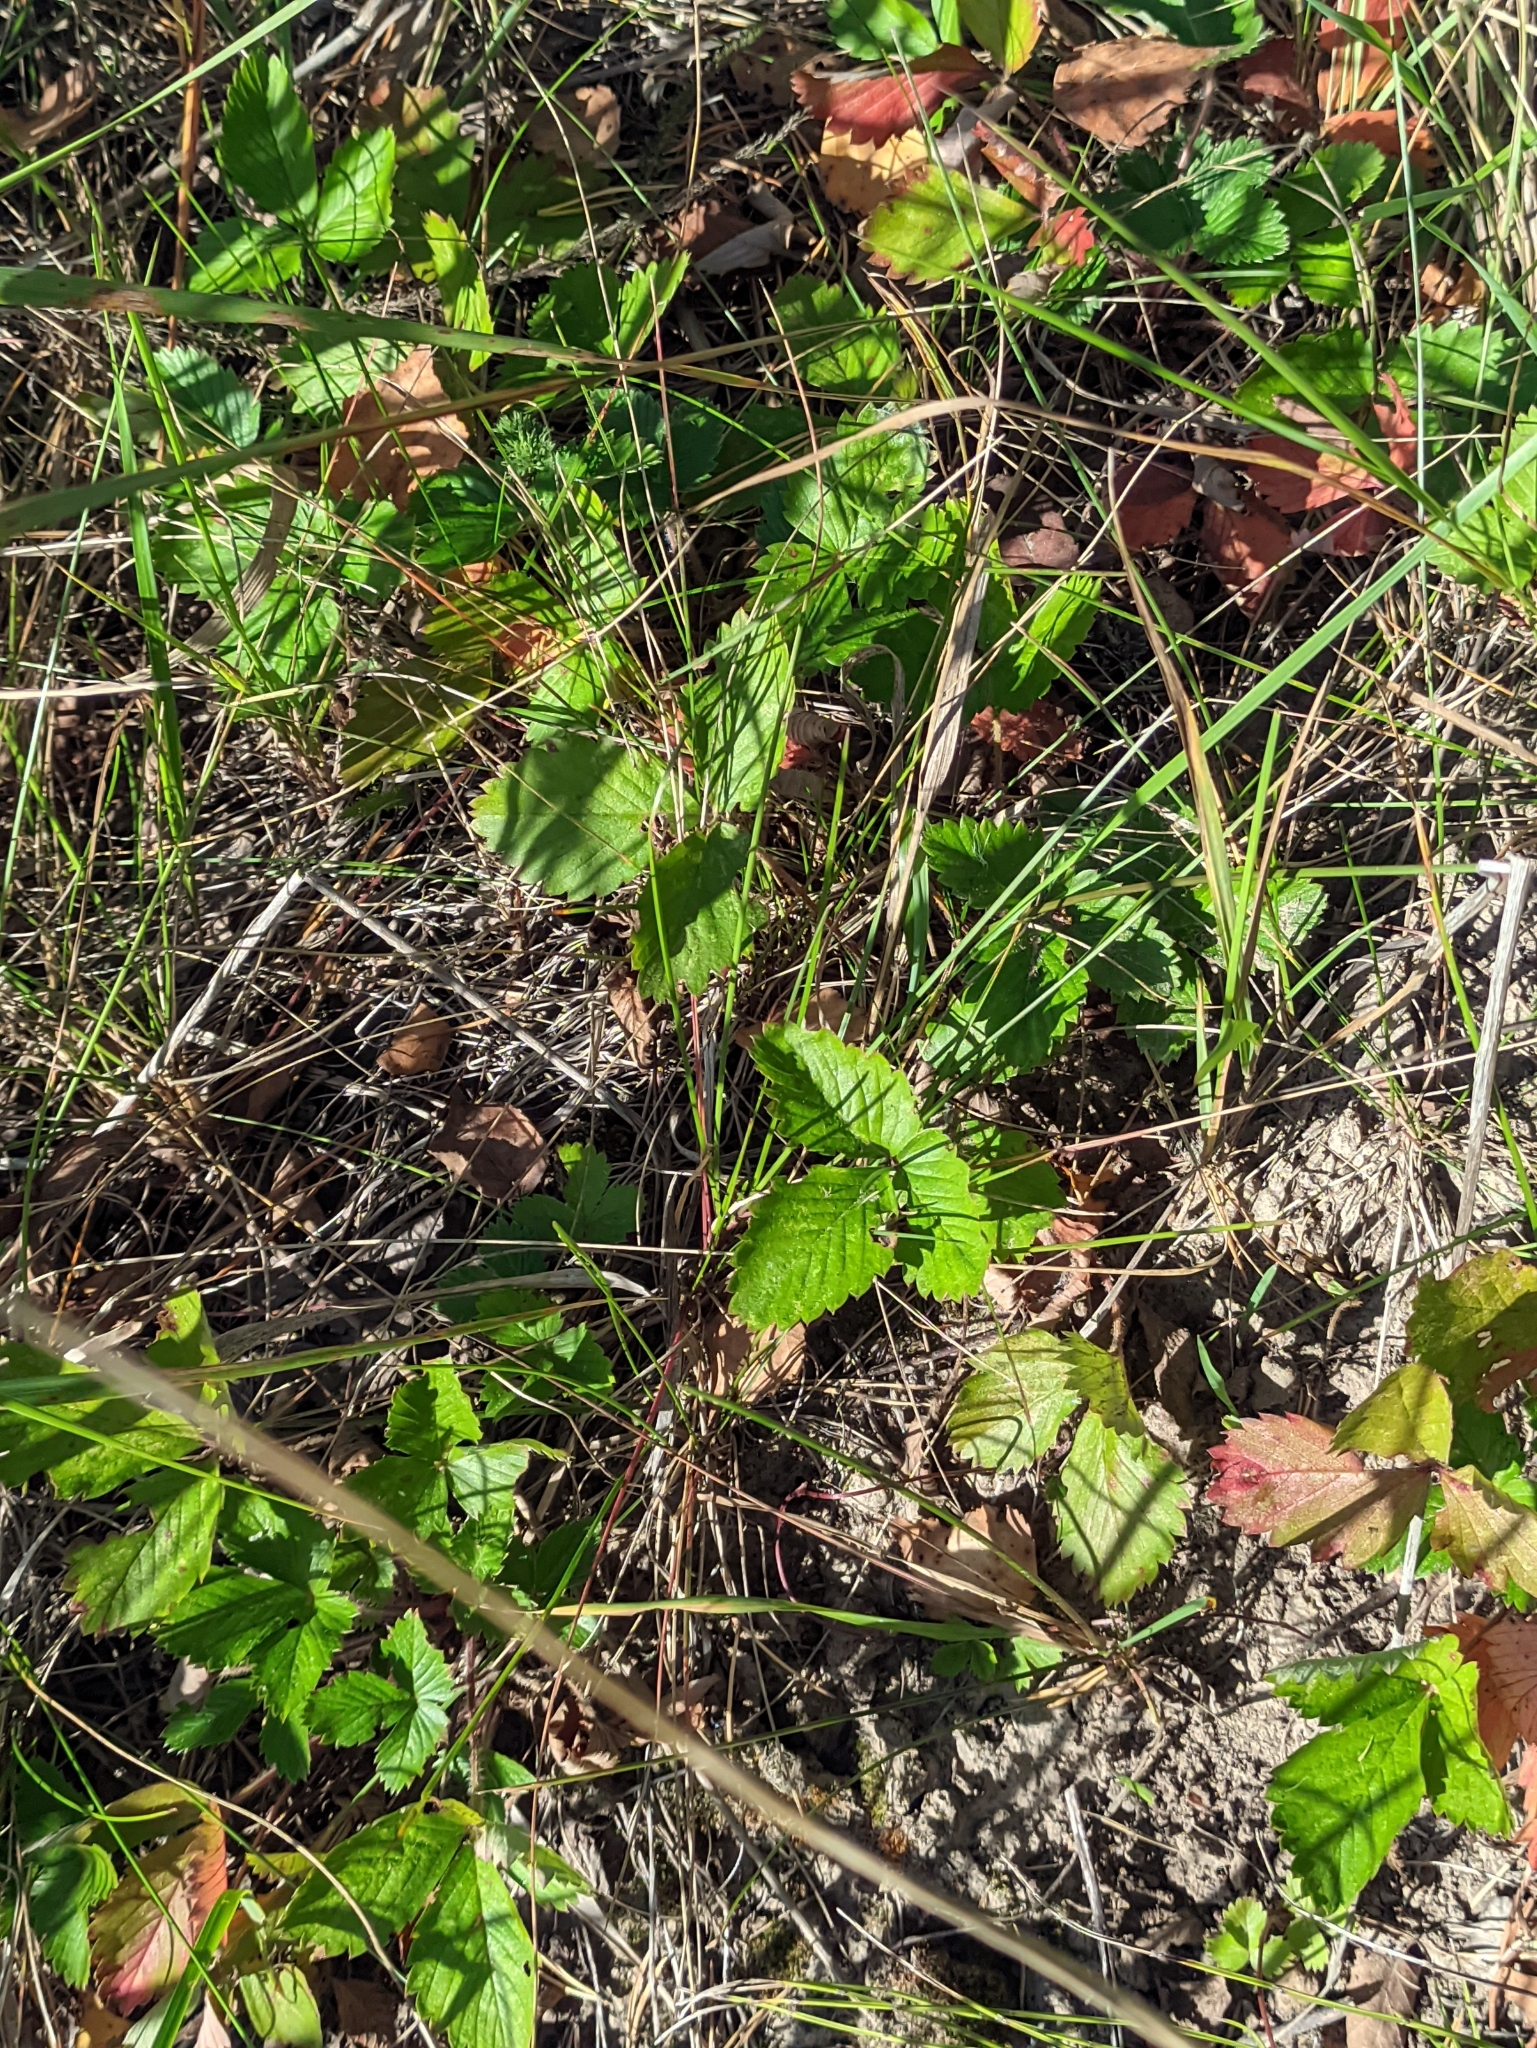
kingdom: Plantae
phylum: Tracheophyta
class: Magnoliopsida
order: Rosales
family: Rosaceae
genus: Fragaria
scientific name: Fragaria vesca
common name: Wild strawberry
